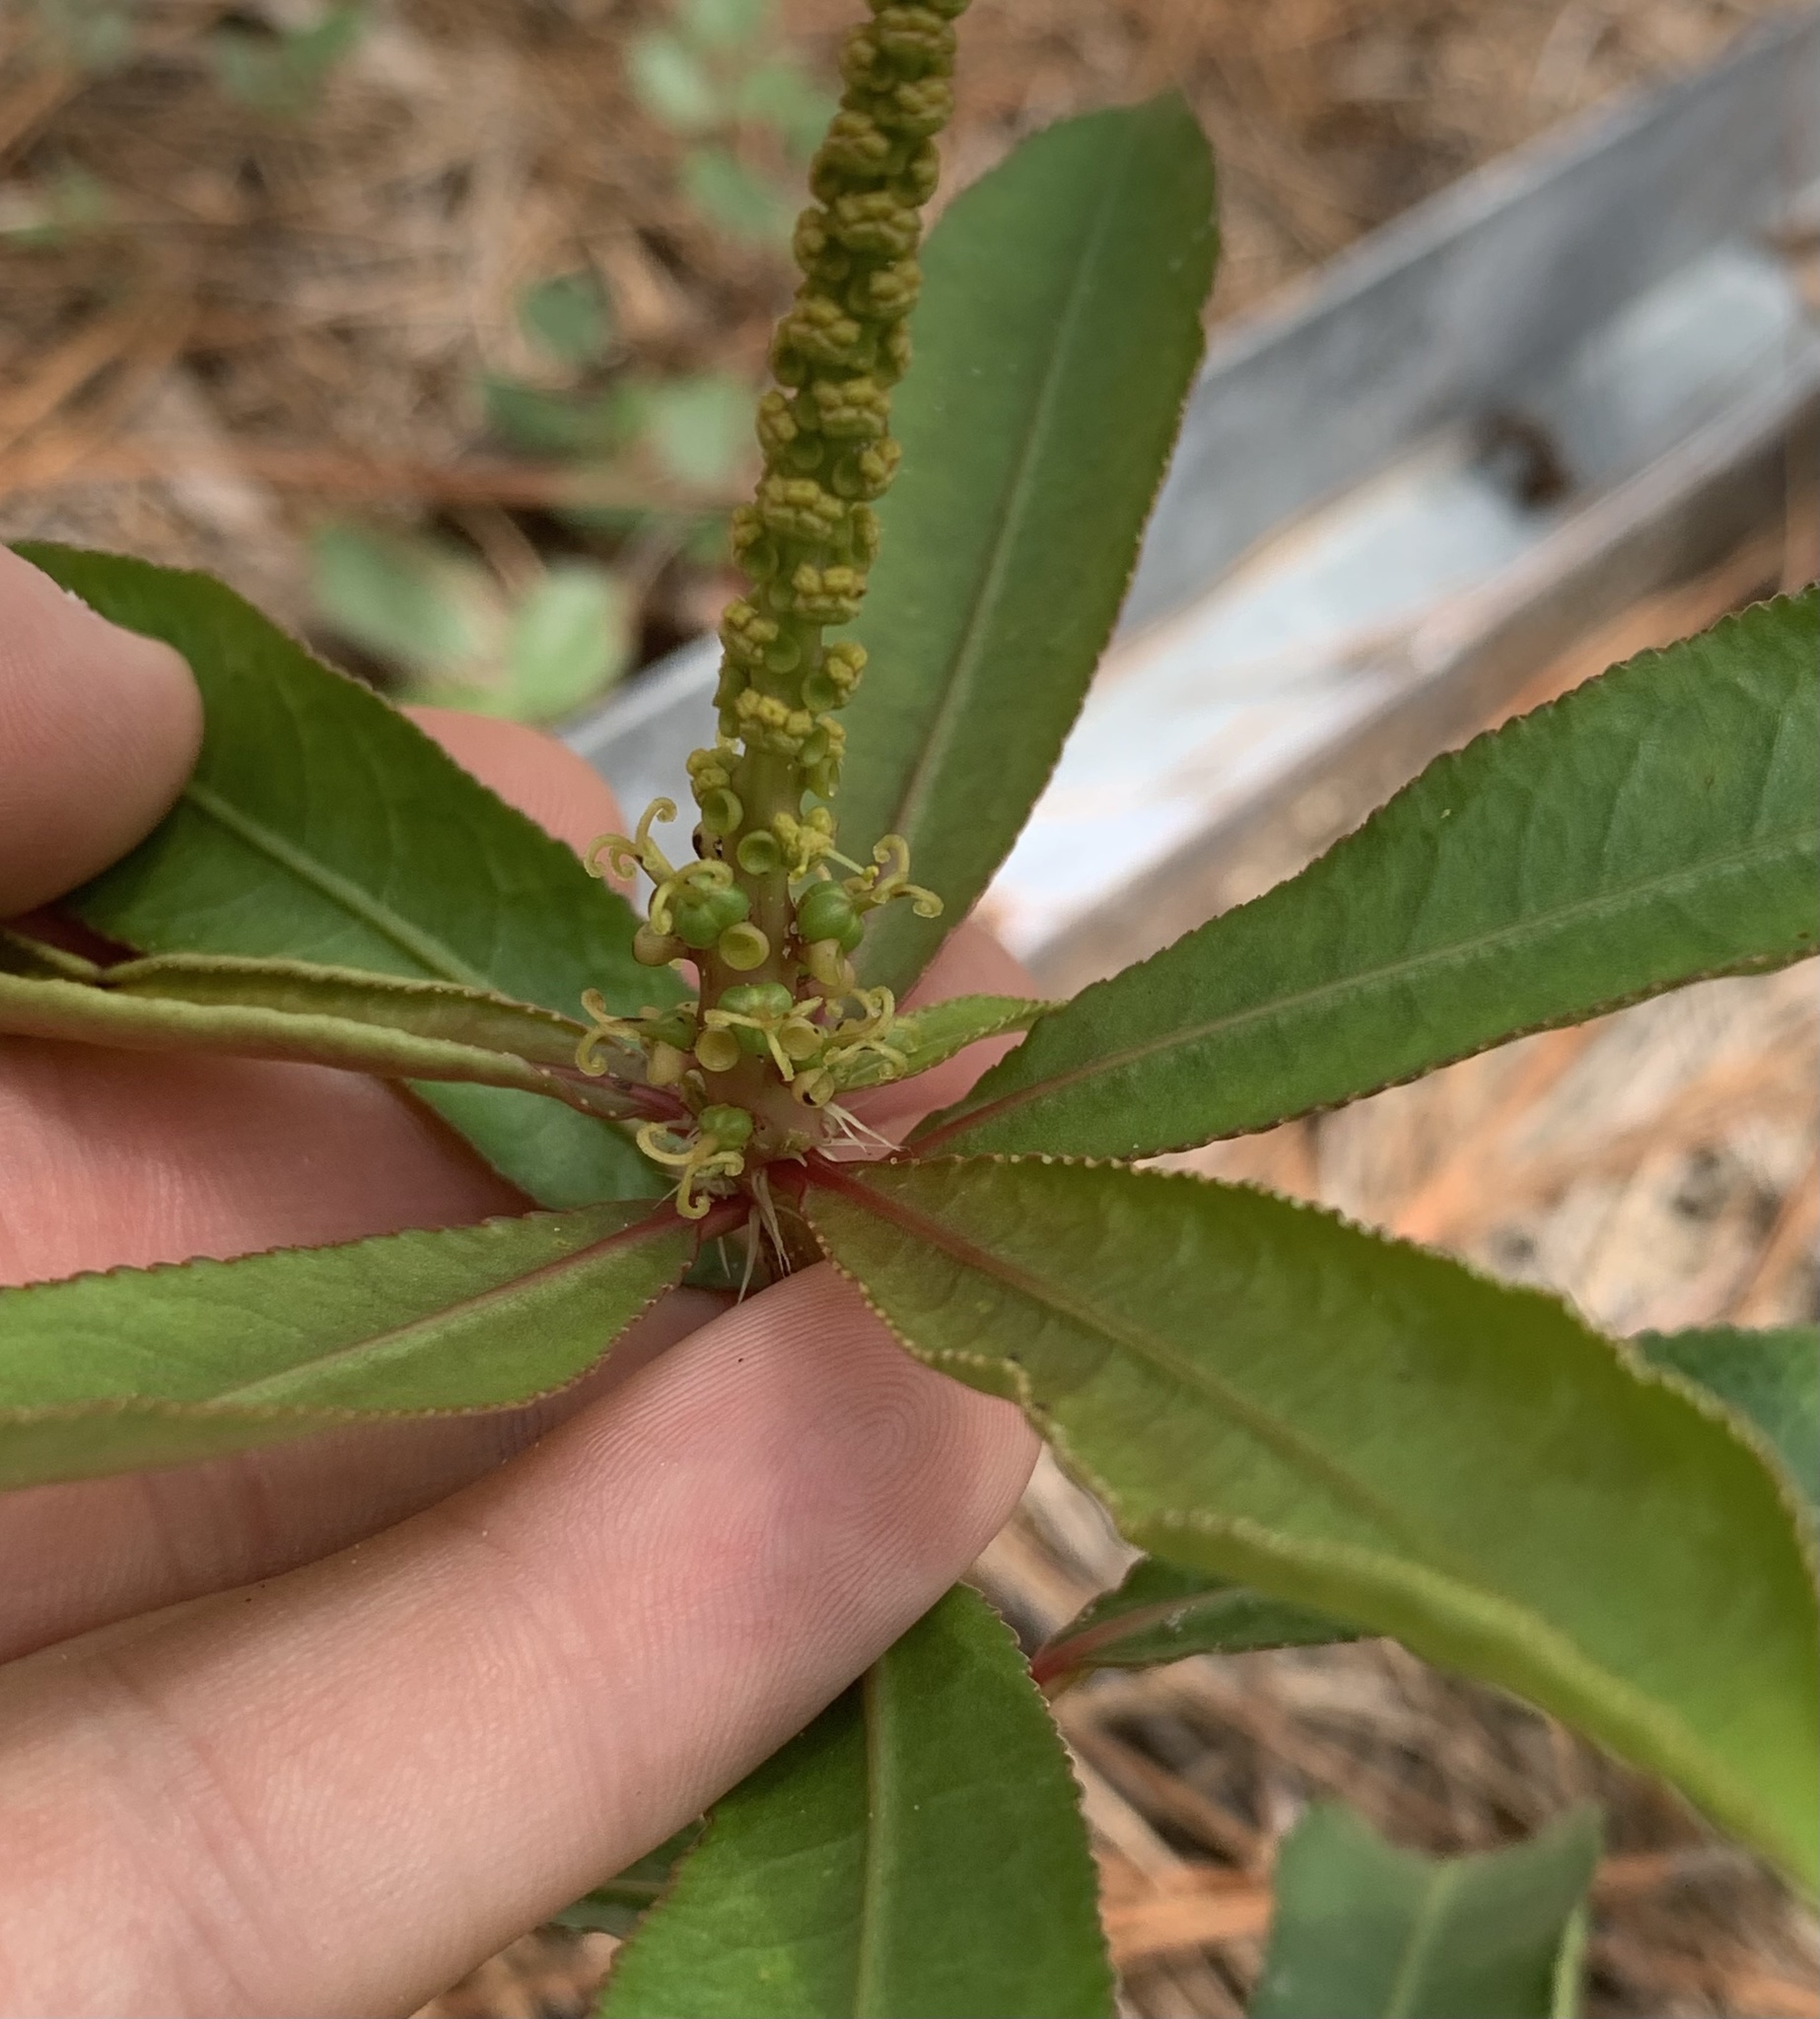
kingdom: Plantae
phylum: Tracheophyta
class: Magnoliopsida
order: Malpighiales
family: Euphorbiaceae
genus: Stillingia
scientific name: Stillingia sylvatica
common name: Queen's-delight
